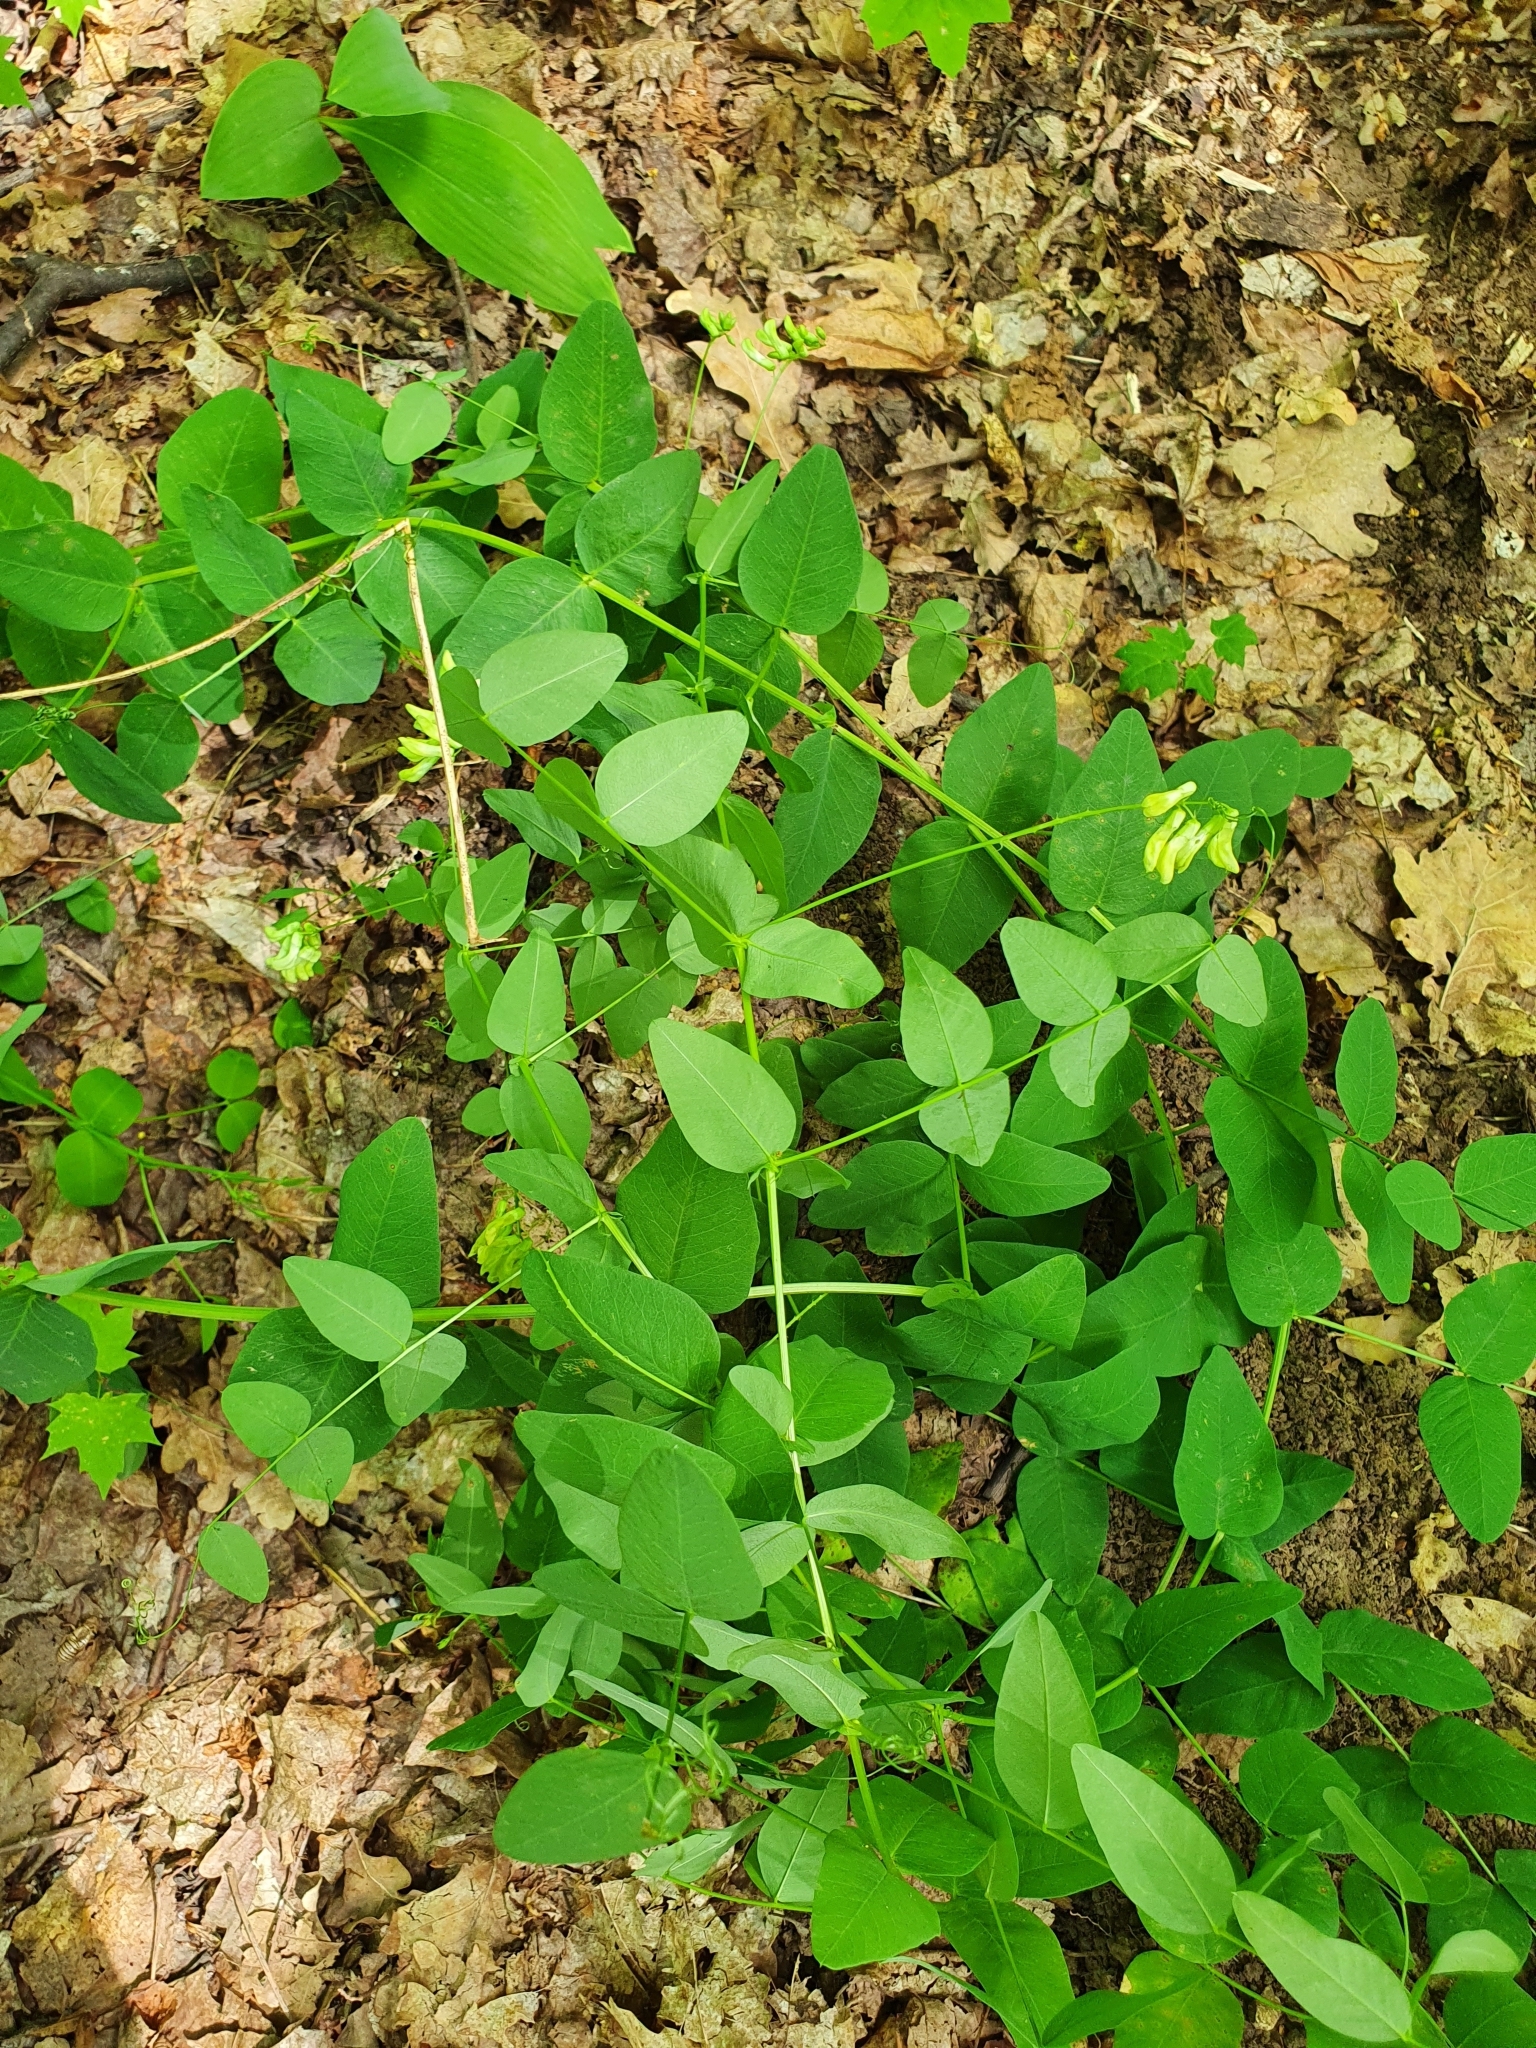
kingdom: Plantae
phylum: Tracheophyta
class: Magnoliopsida
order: Fabales
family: Fabaceae
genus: Vicia
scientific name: Vicia pisiformis
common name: Pale-flower vetch
